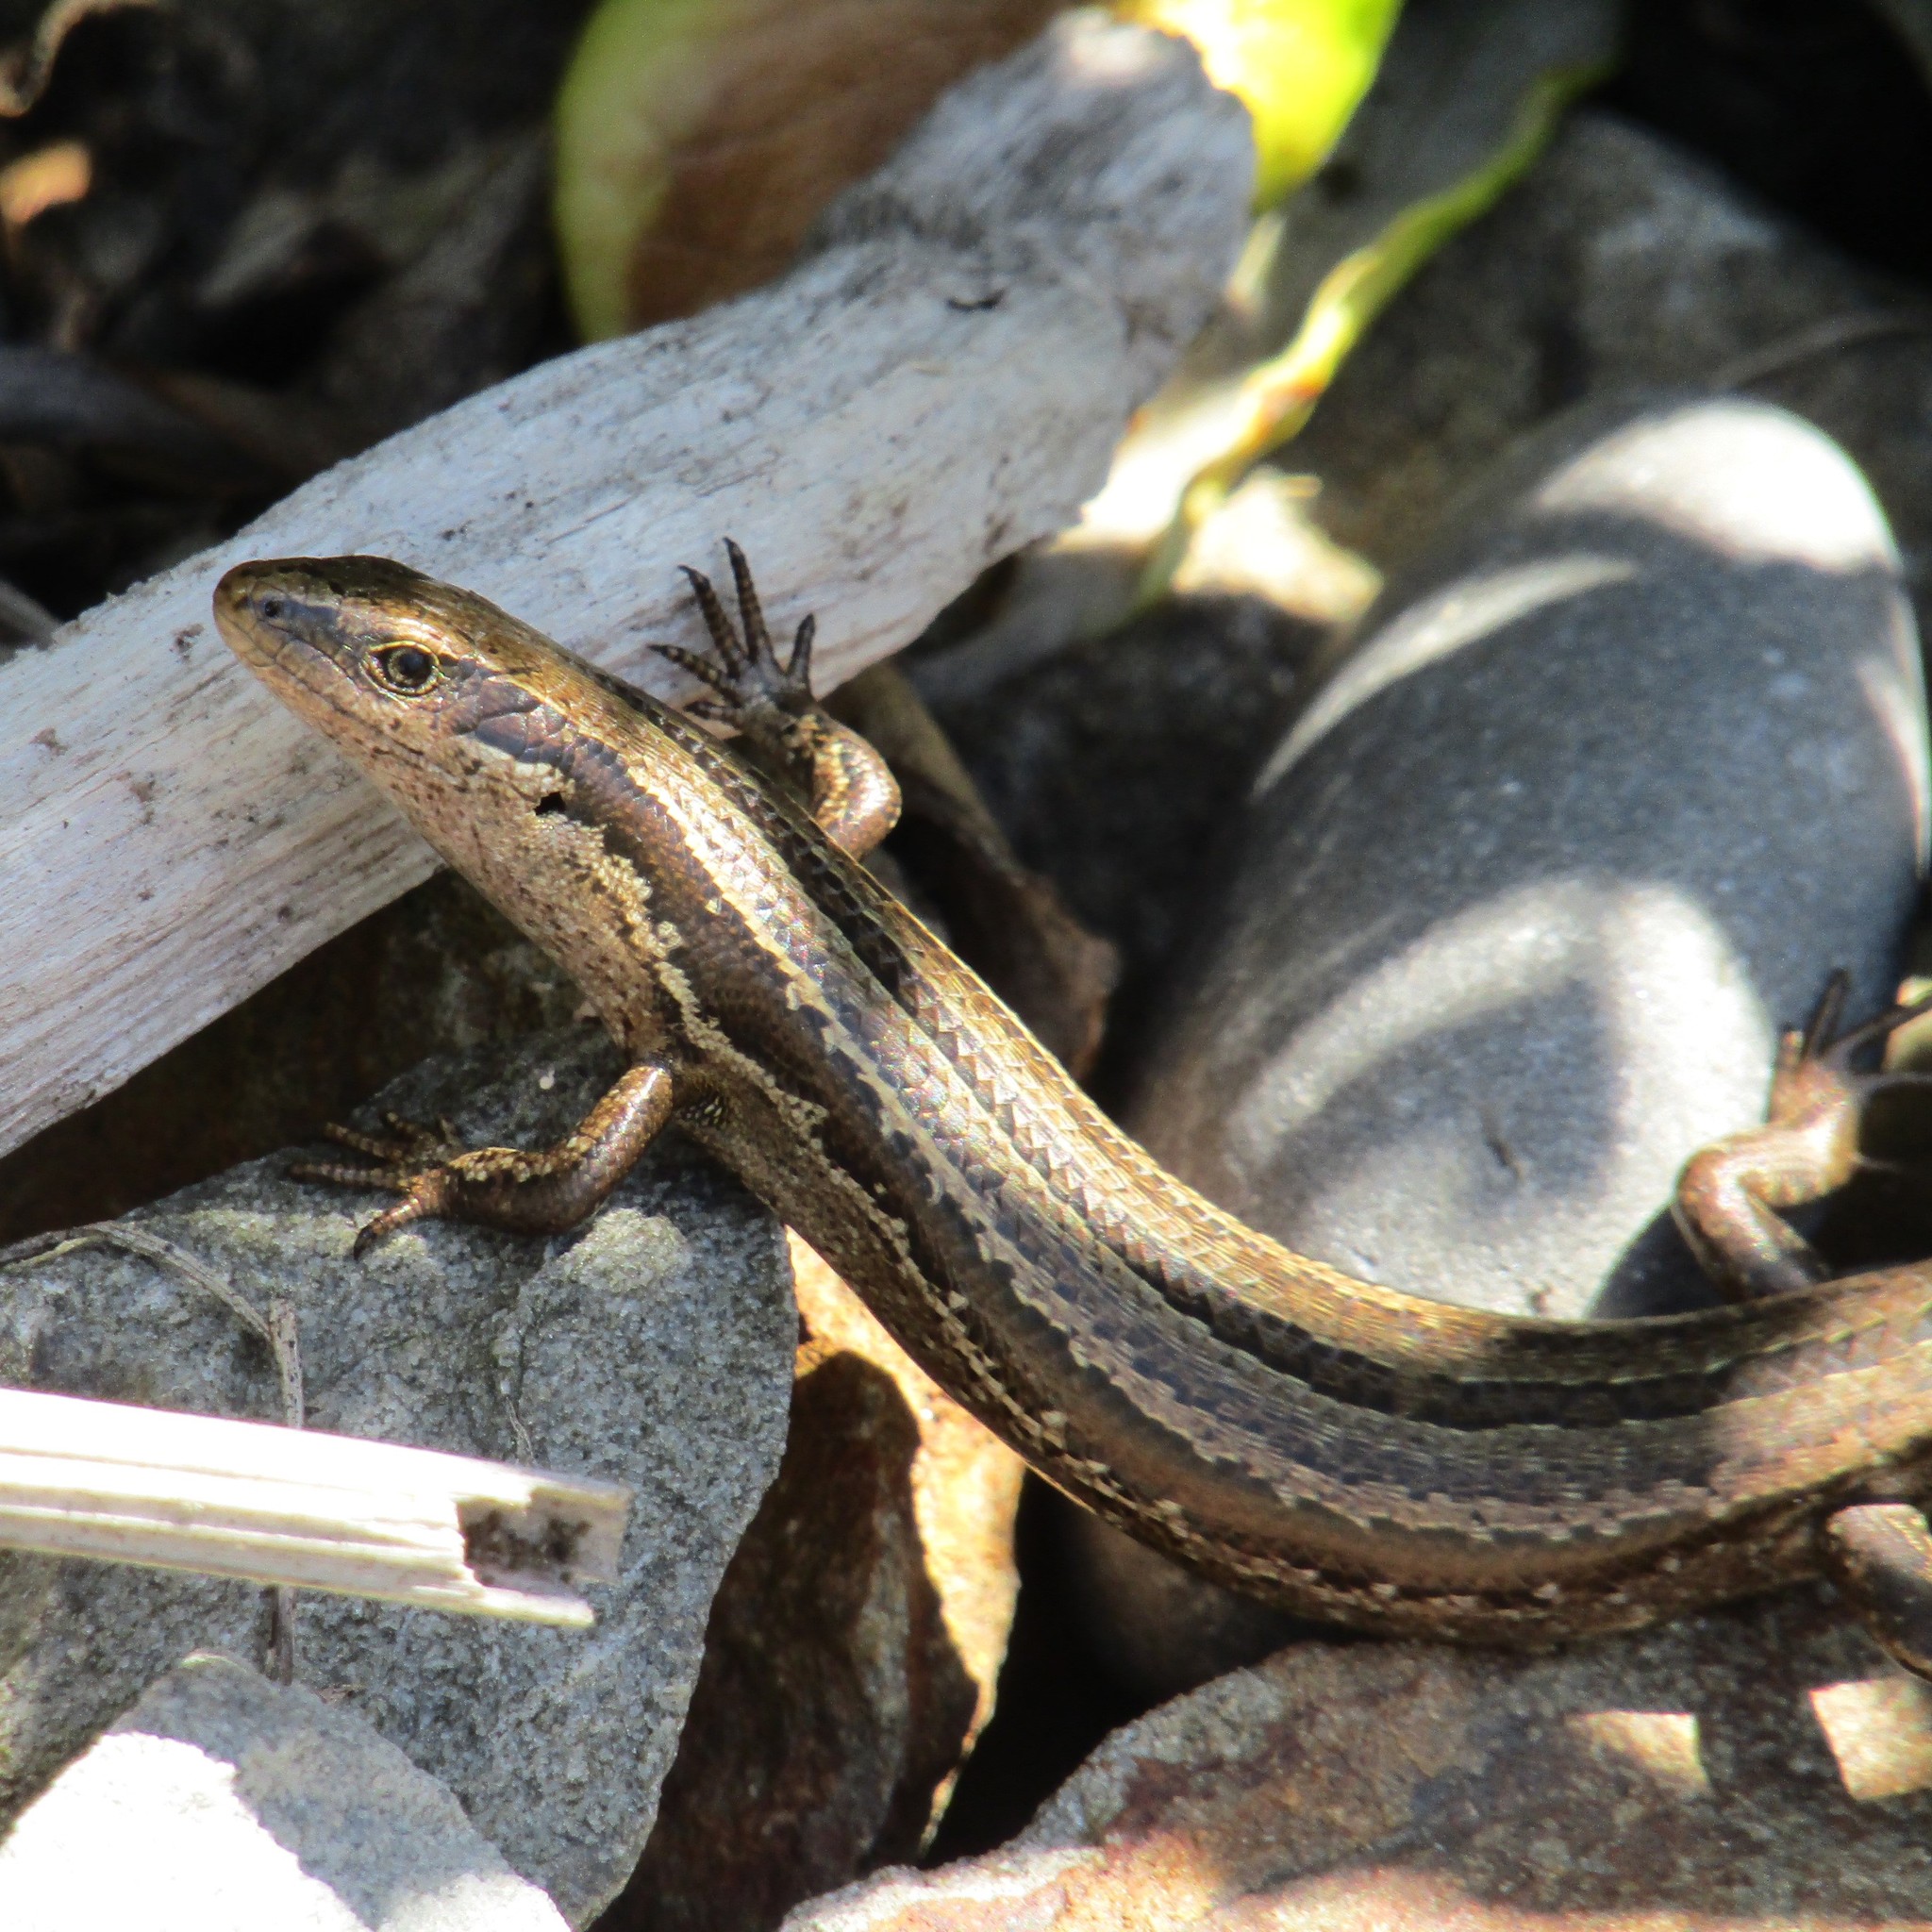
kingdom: Animalia
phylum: Chordata
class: Squamata
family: Scincidae
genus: Oligosoma
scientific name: Oligosoma polychroma
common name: Common new zealand skink
